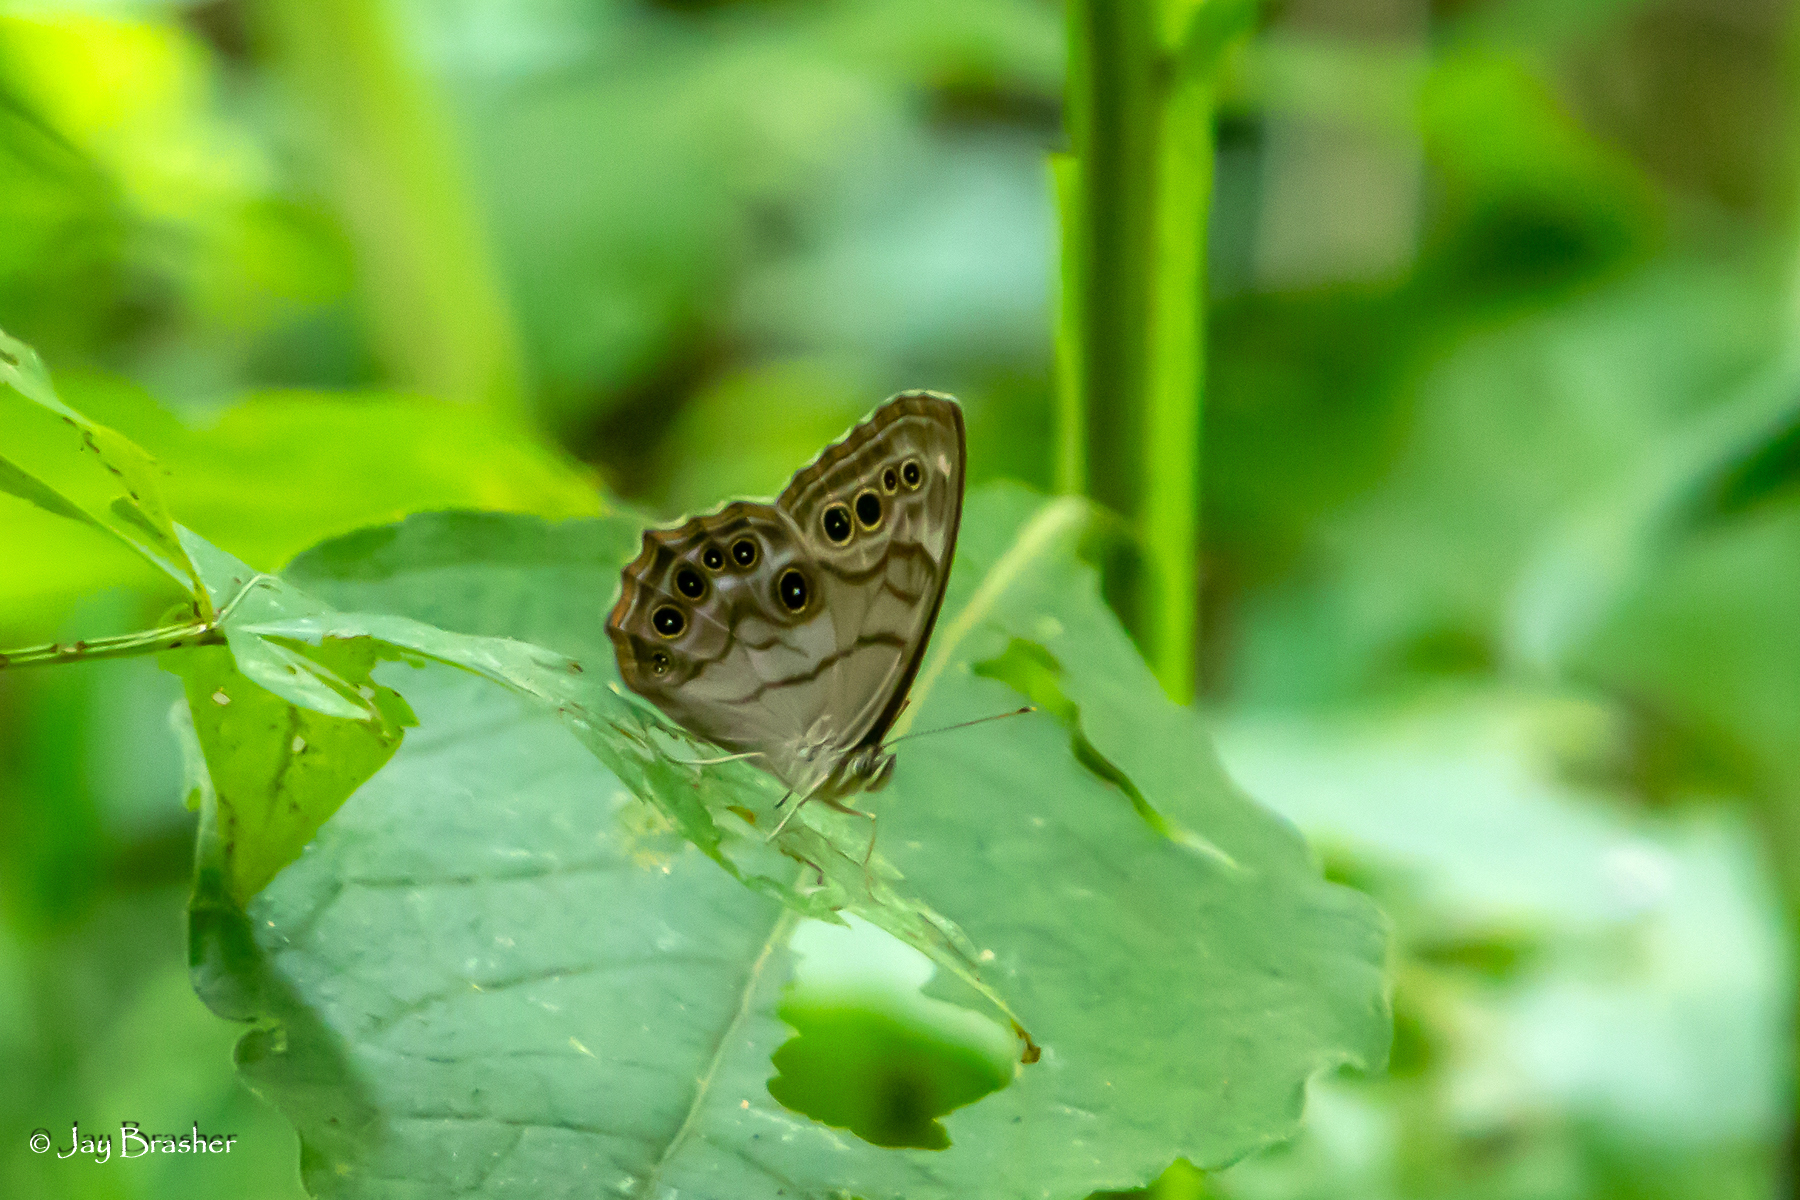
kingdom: Animalia
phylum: Arthropoda
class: Insecta
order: Lepidoptera
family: Nymphalidae
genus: Lethe
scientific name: Lethe anthedon
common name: Northern pearly-eye
